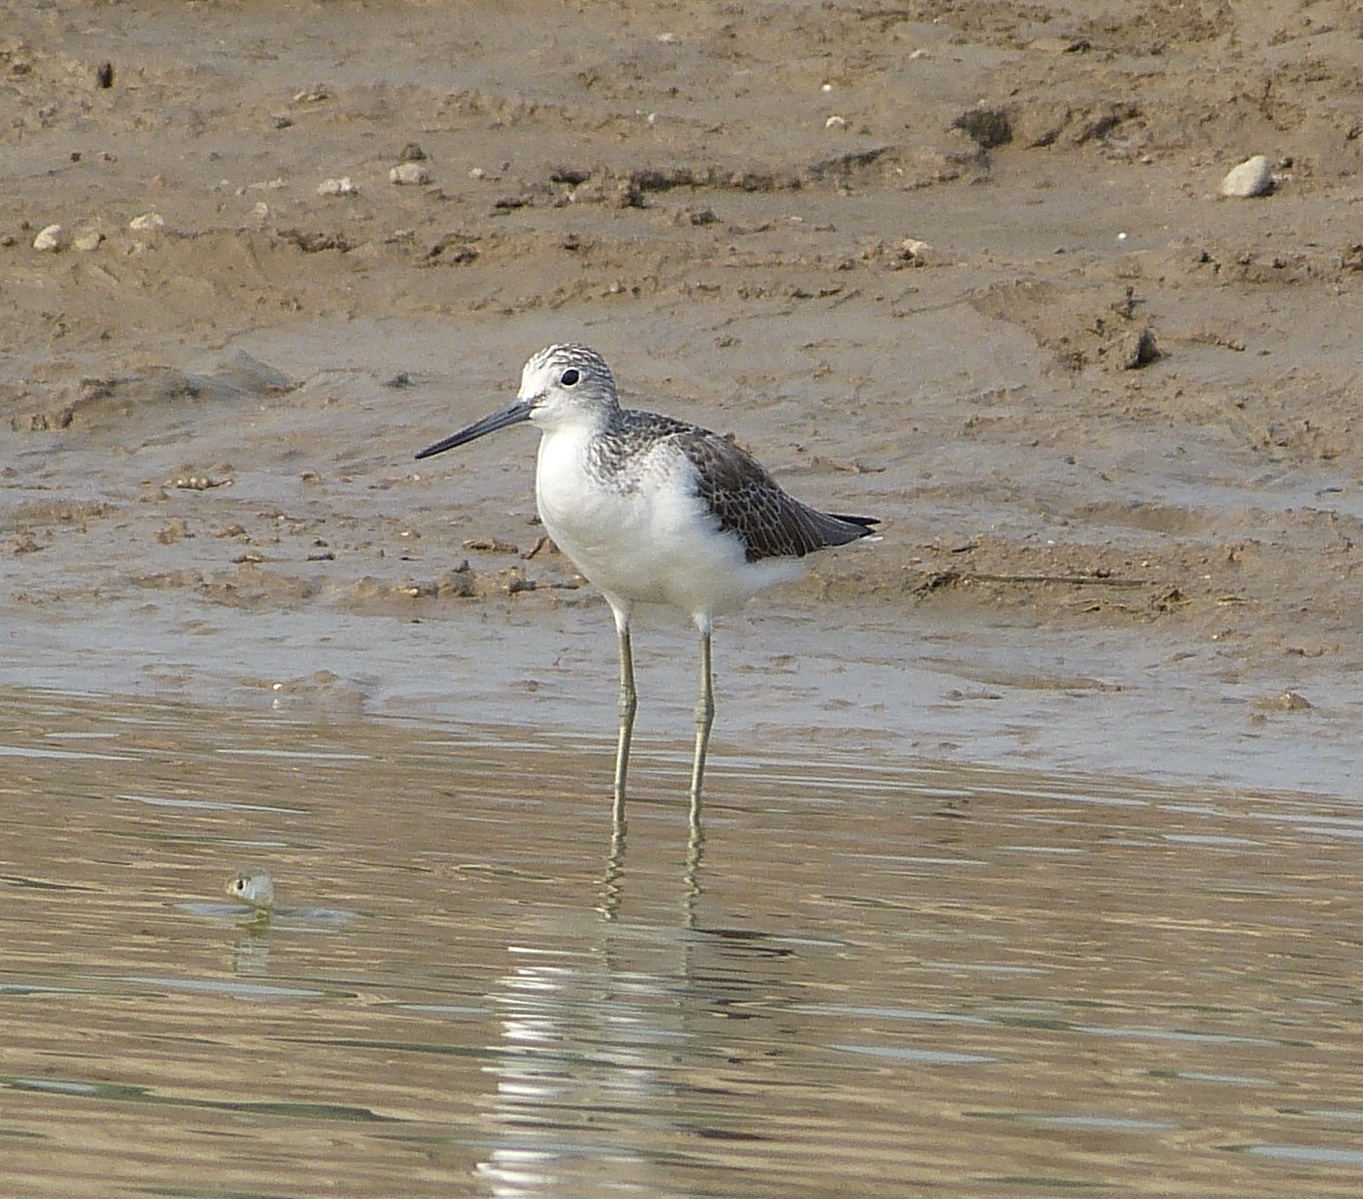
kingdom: Animalia
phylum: Chordata
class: Aves
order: Charadriiformes
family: Scolopacidae
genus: Tringa
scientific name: Tringa nebularia
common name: Common greenshank
